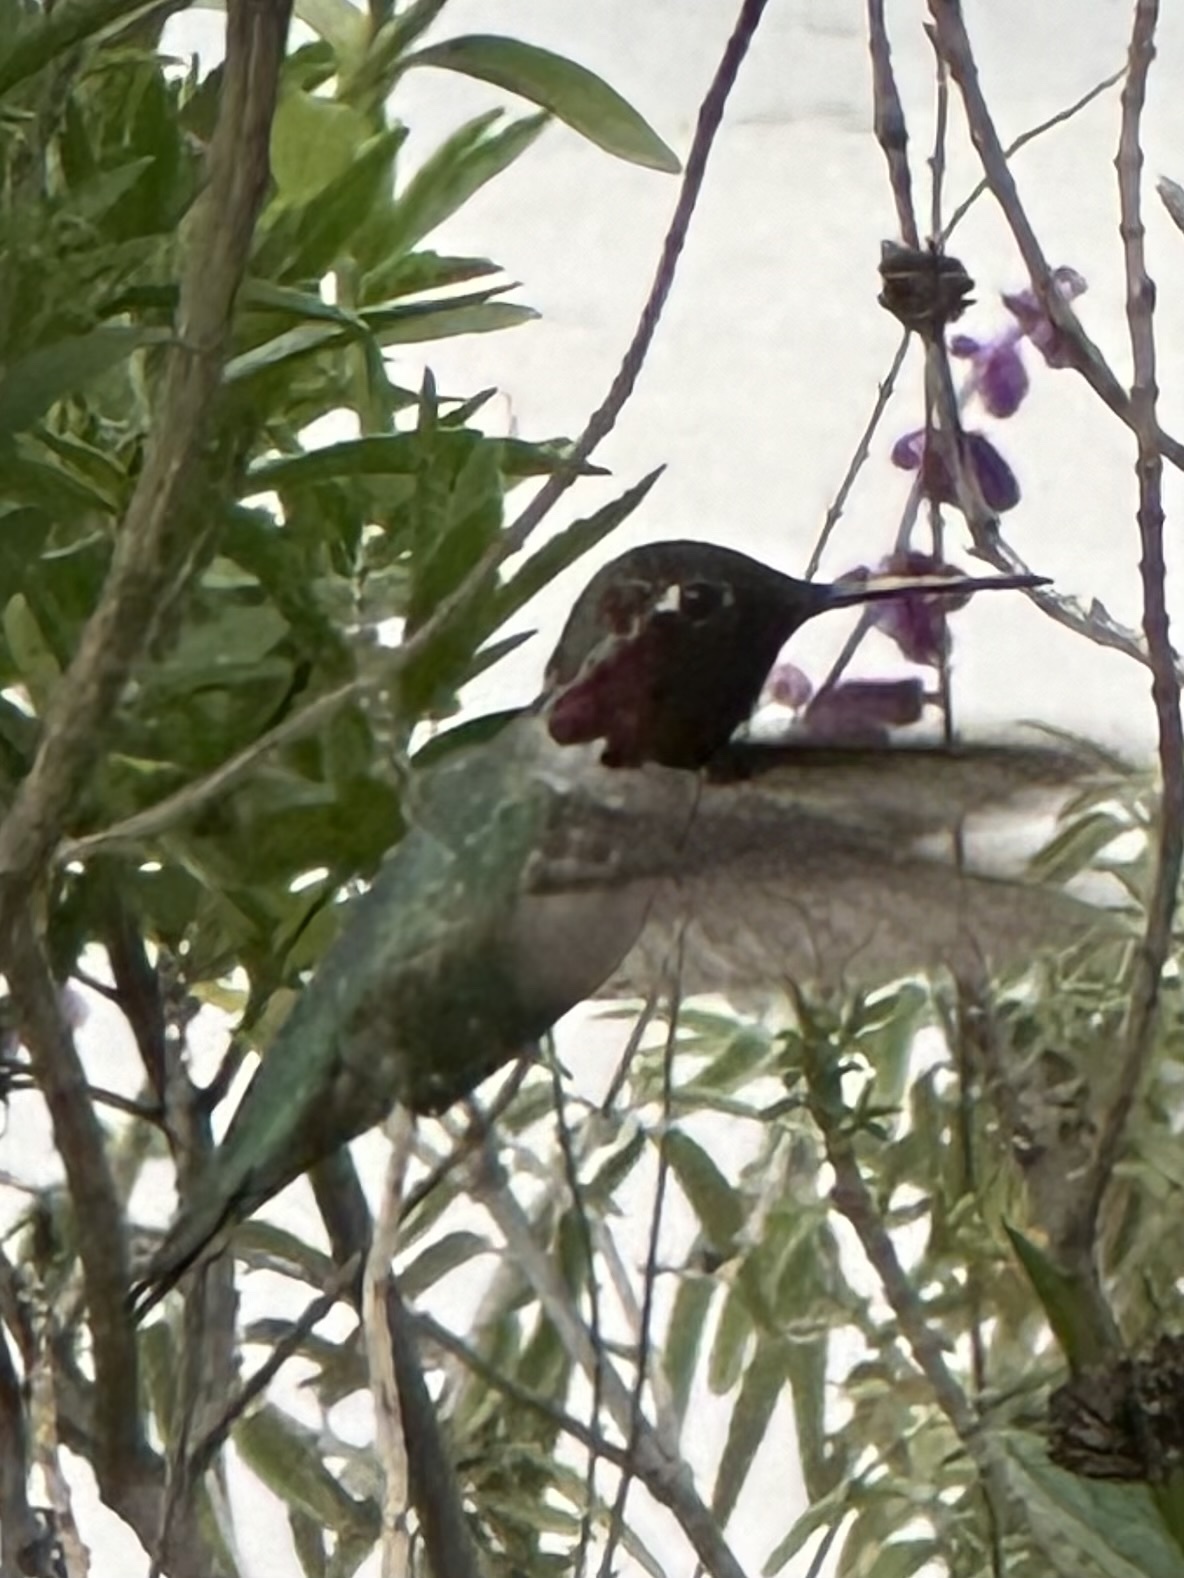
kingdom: Animalia
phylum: Chordata
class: Aves
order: Apodiformes
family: Trochilidae
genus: Calypte
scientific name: Calypte anna
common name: Anna's hummingbird
